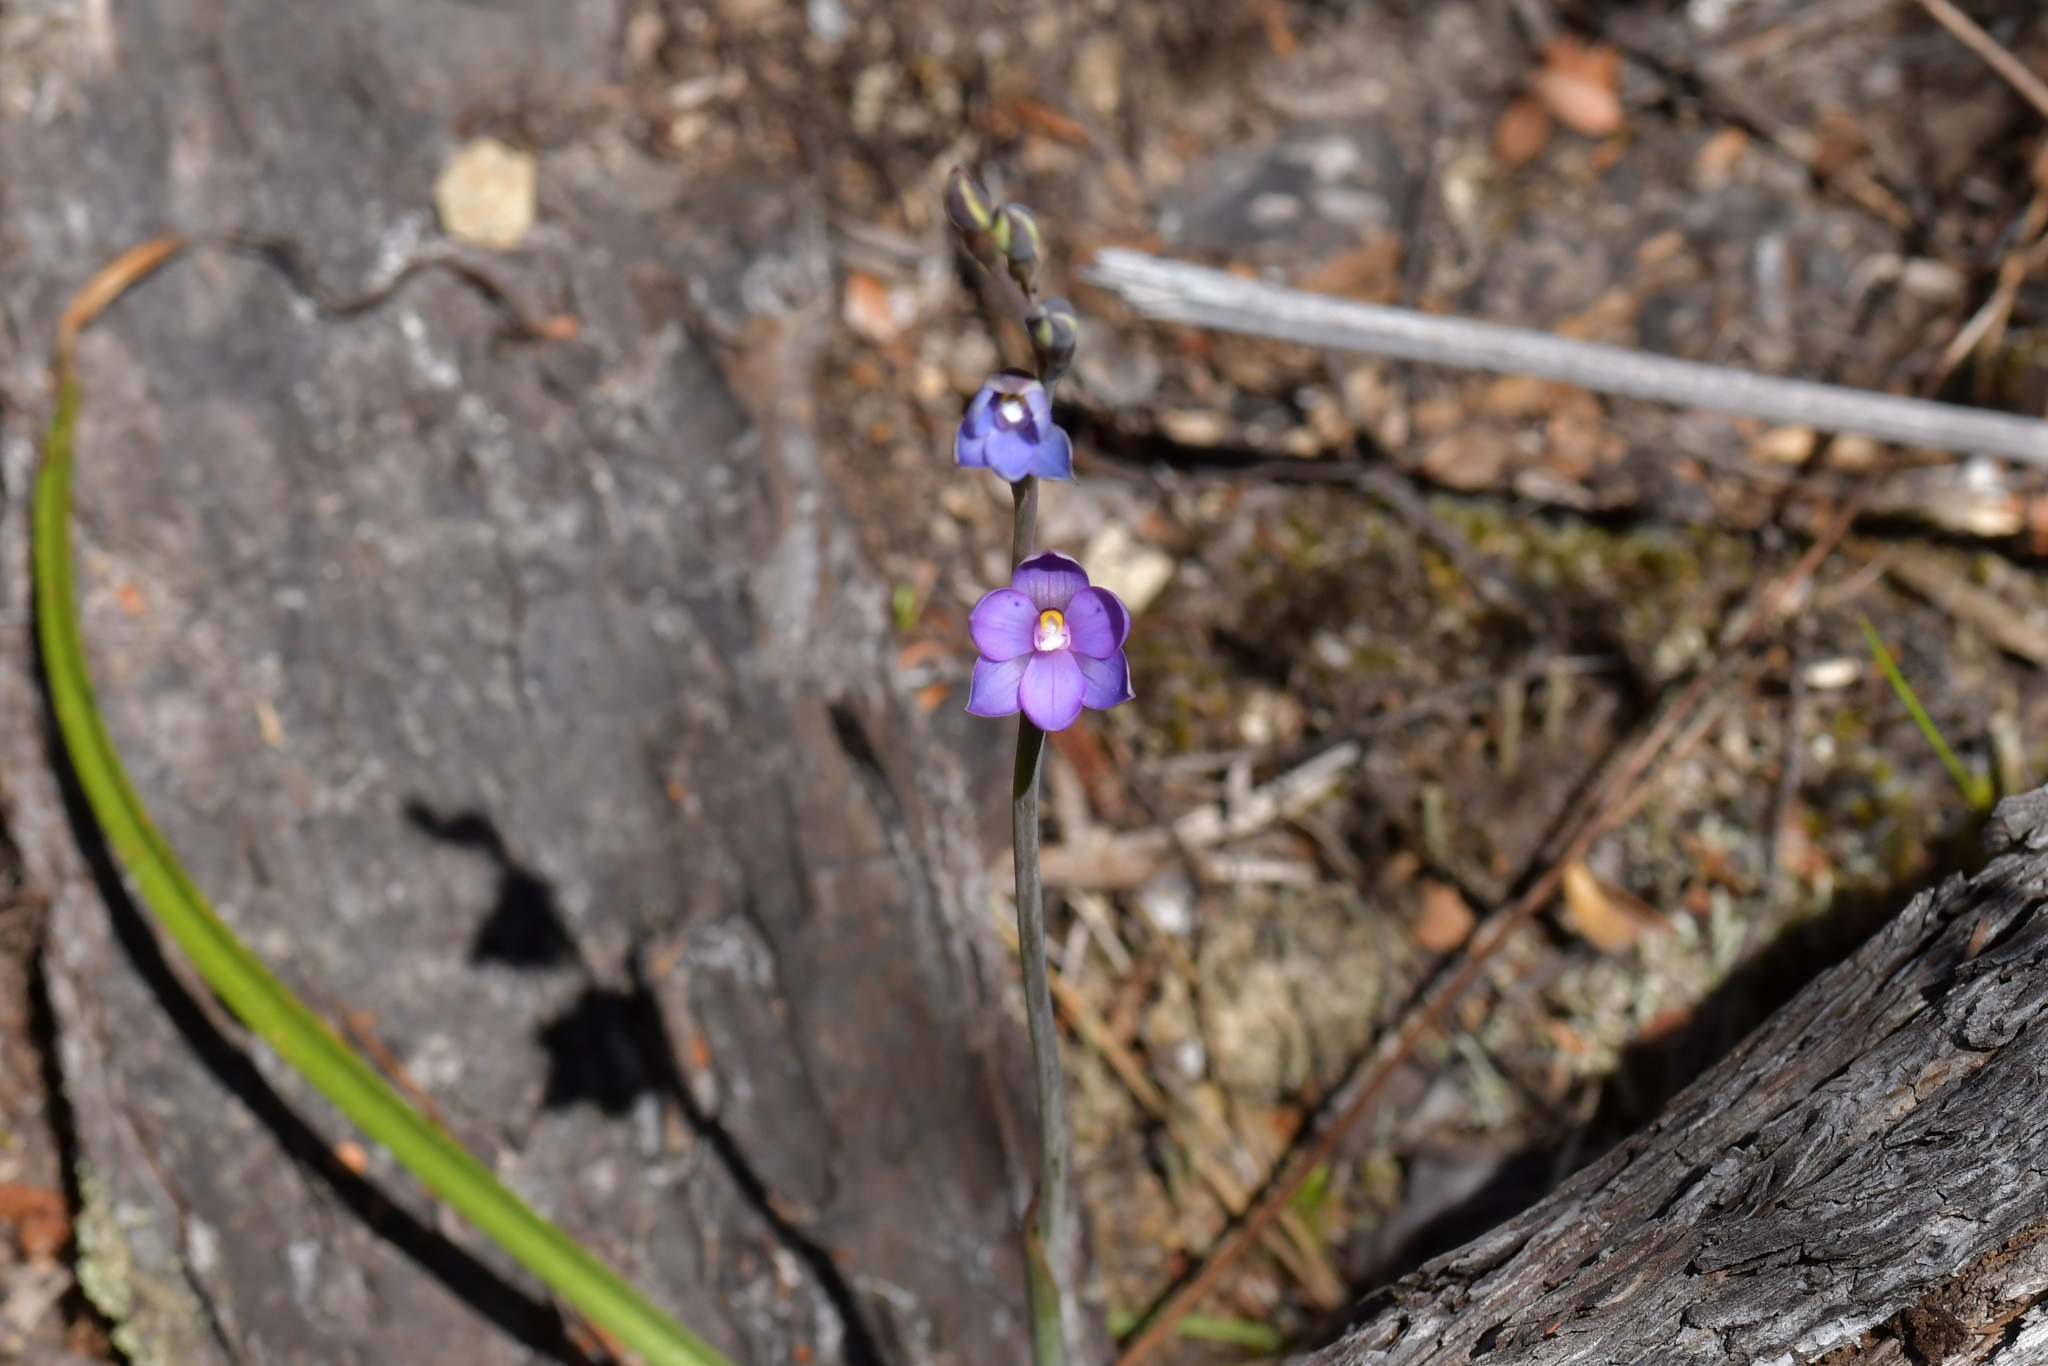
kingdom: Plantae
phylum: Tracheophyta
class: Liliopsida
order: Asparagales
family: Orchidaceae
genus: Thelymitra
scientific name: Thelymitra nervosa
